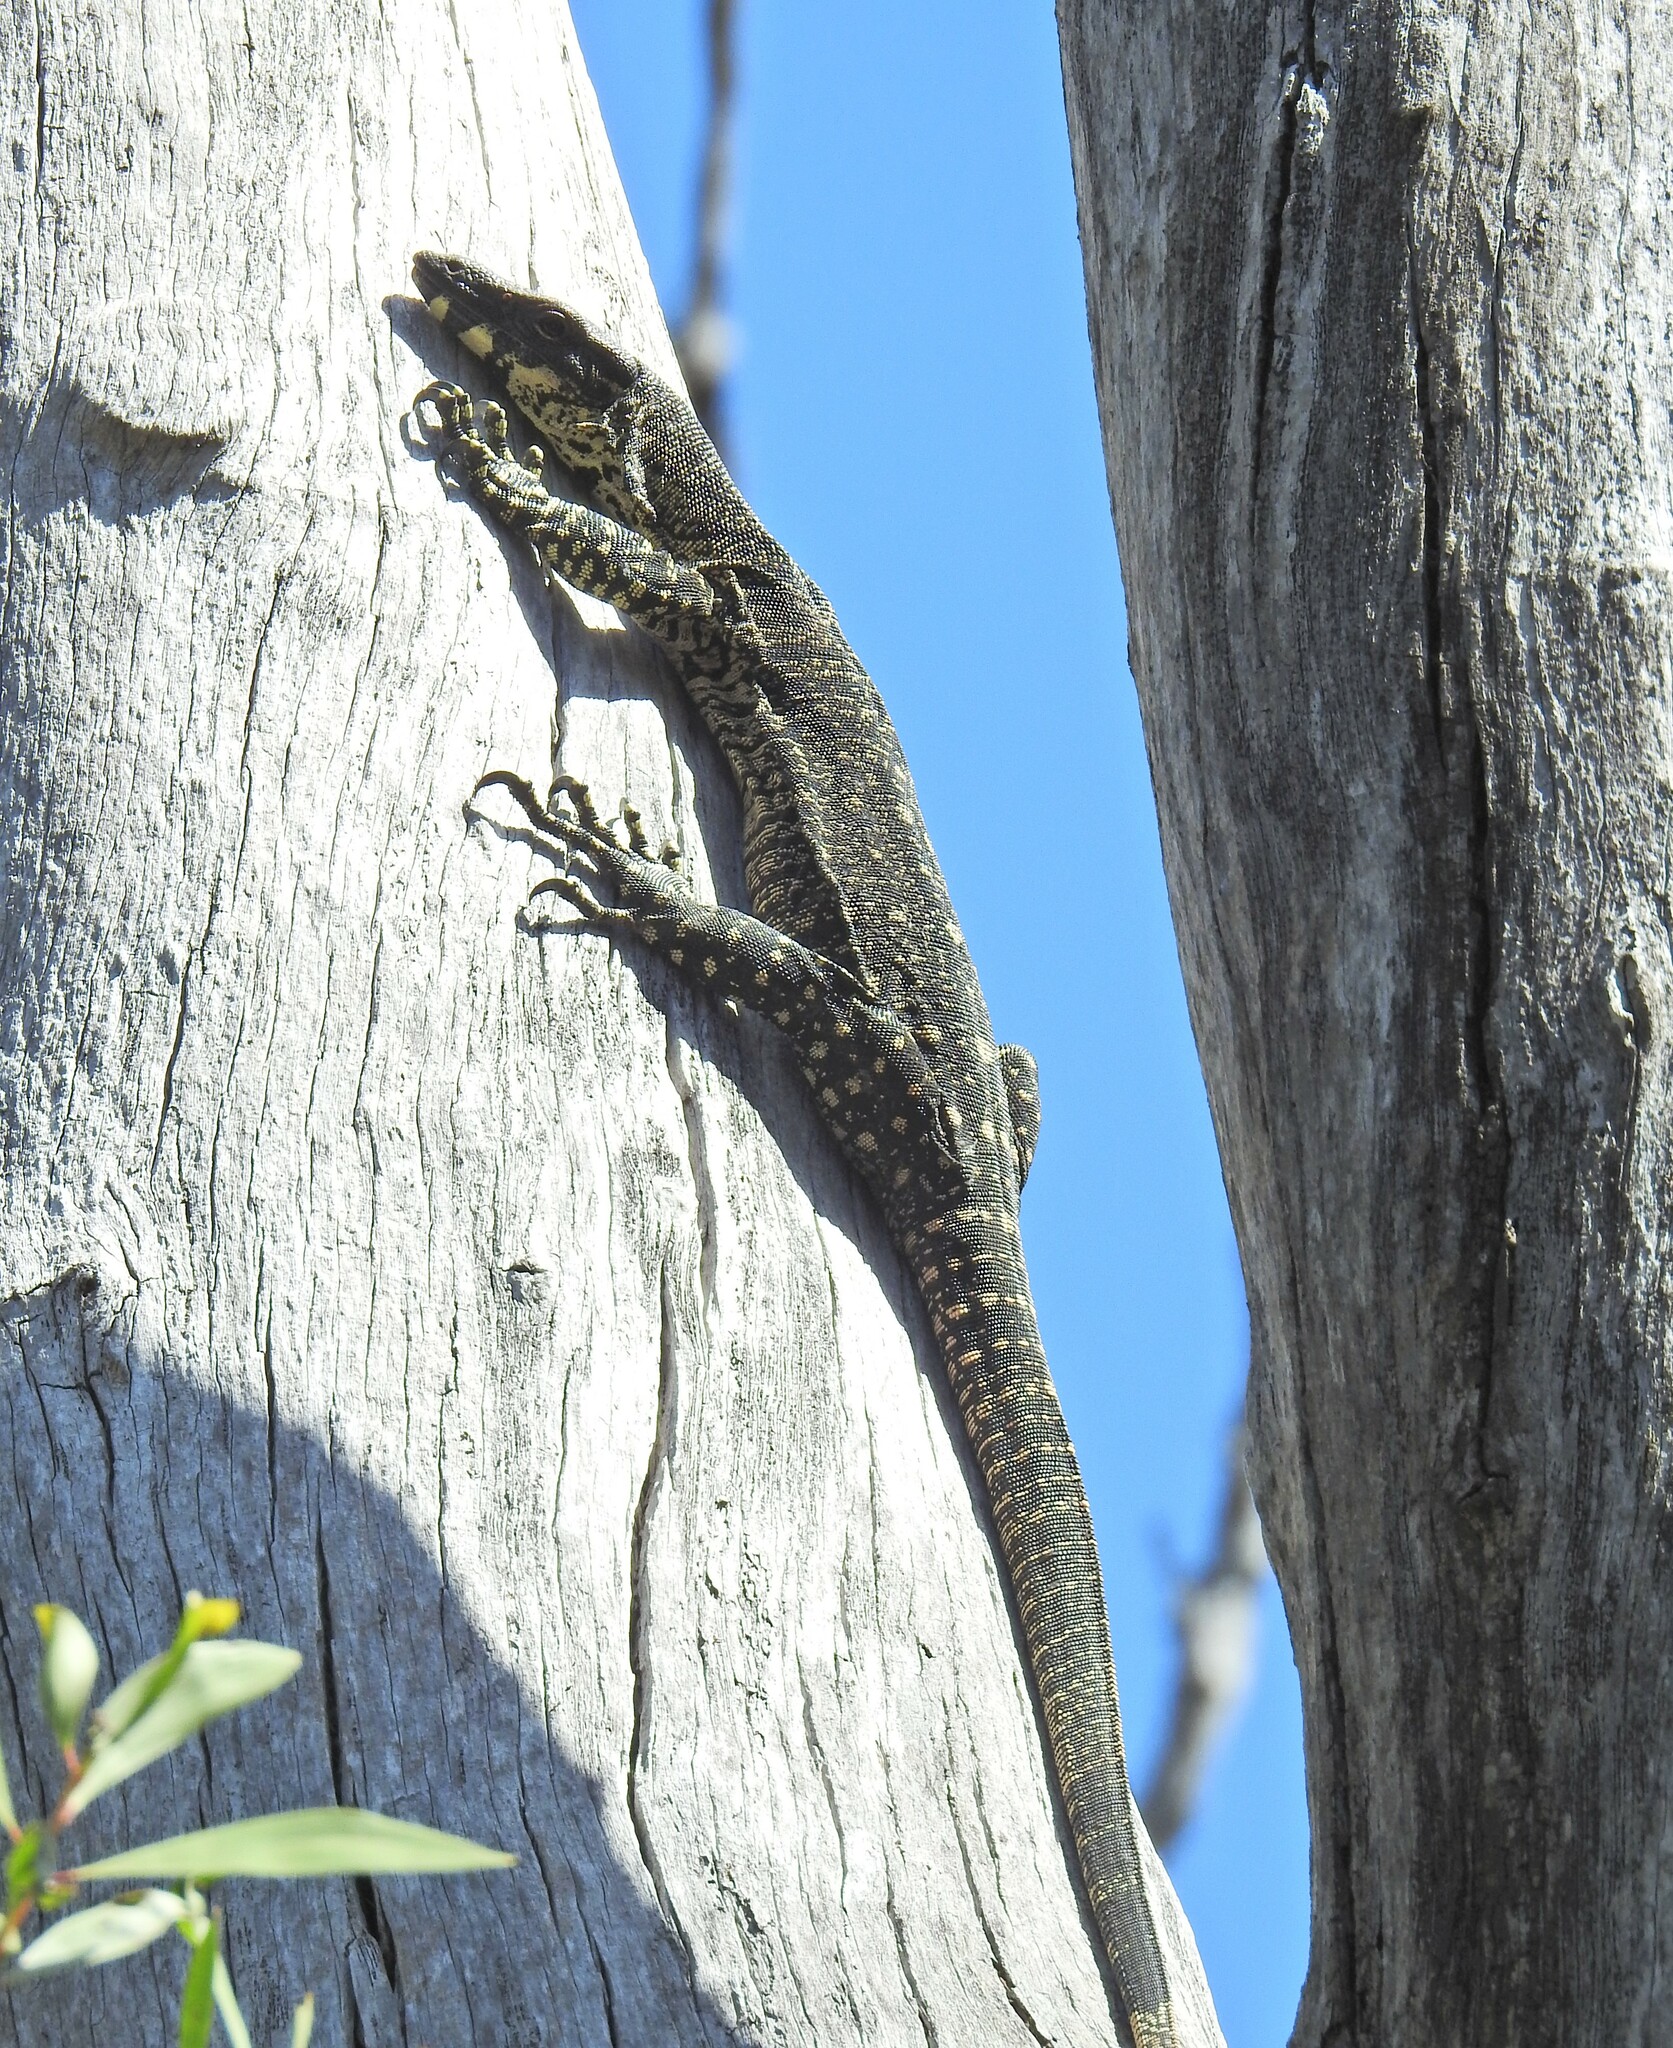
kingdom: Animalia
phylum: Chordata
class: Squamata
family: Varanidae
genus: Varanus
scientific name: Varanus varius
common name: Lace monitor
